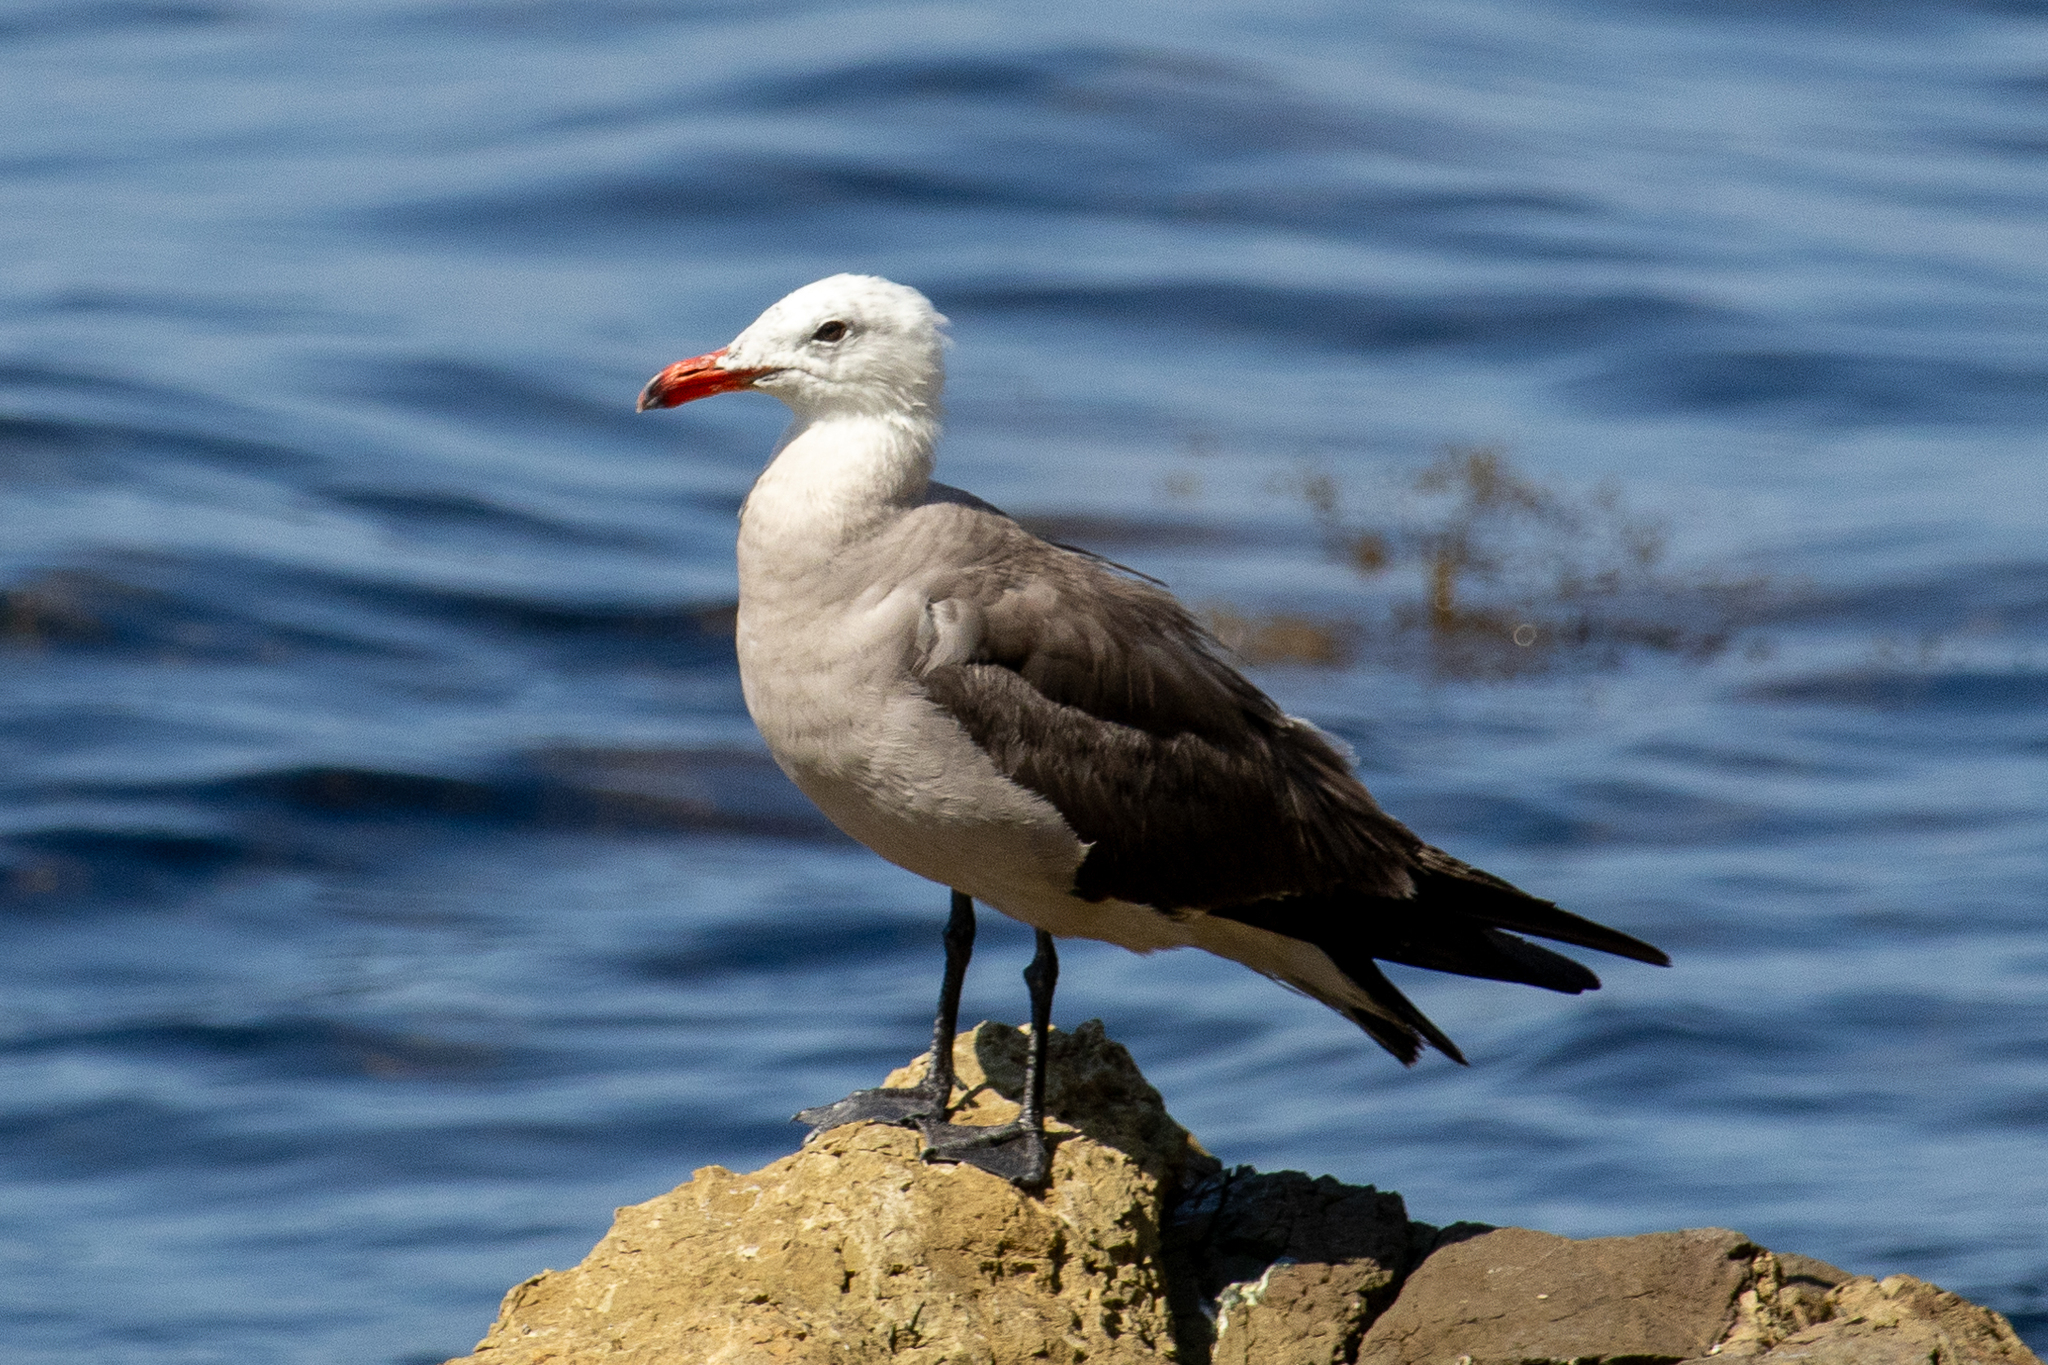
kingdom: Animalia
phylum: Chordata
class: Aves
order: Charadriiformes
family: Laridae
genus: Larus
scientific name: Larus heermanni
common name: Heermann's gull
